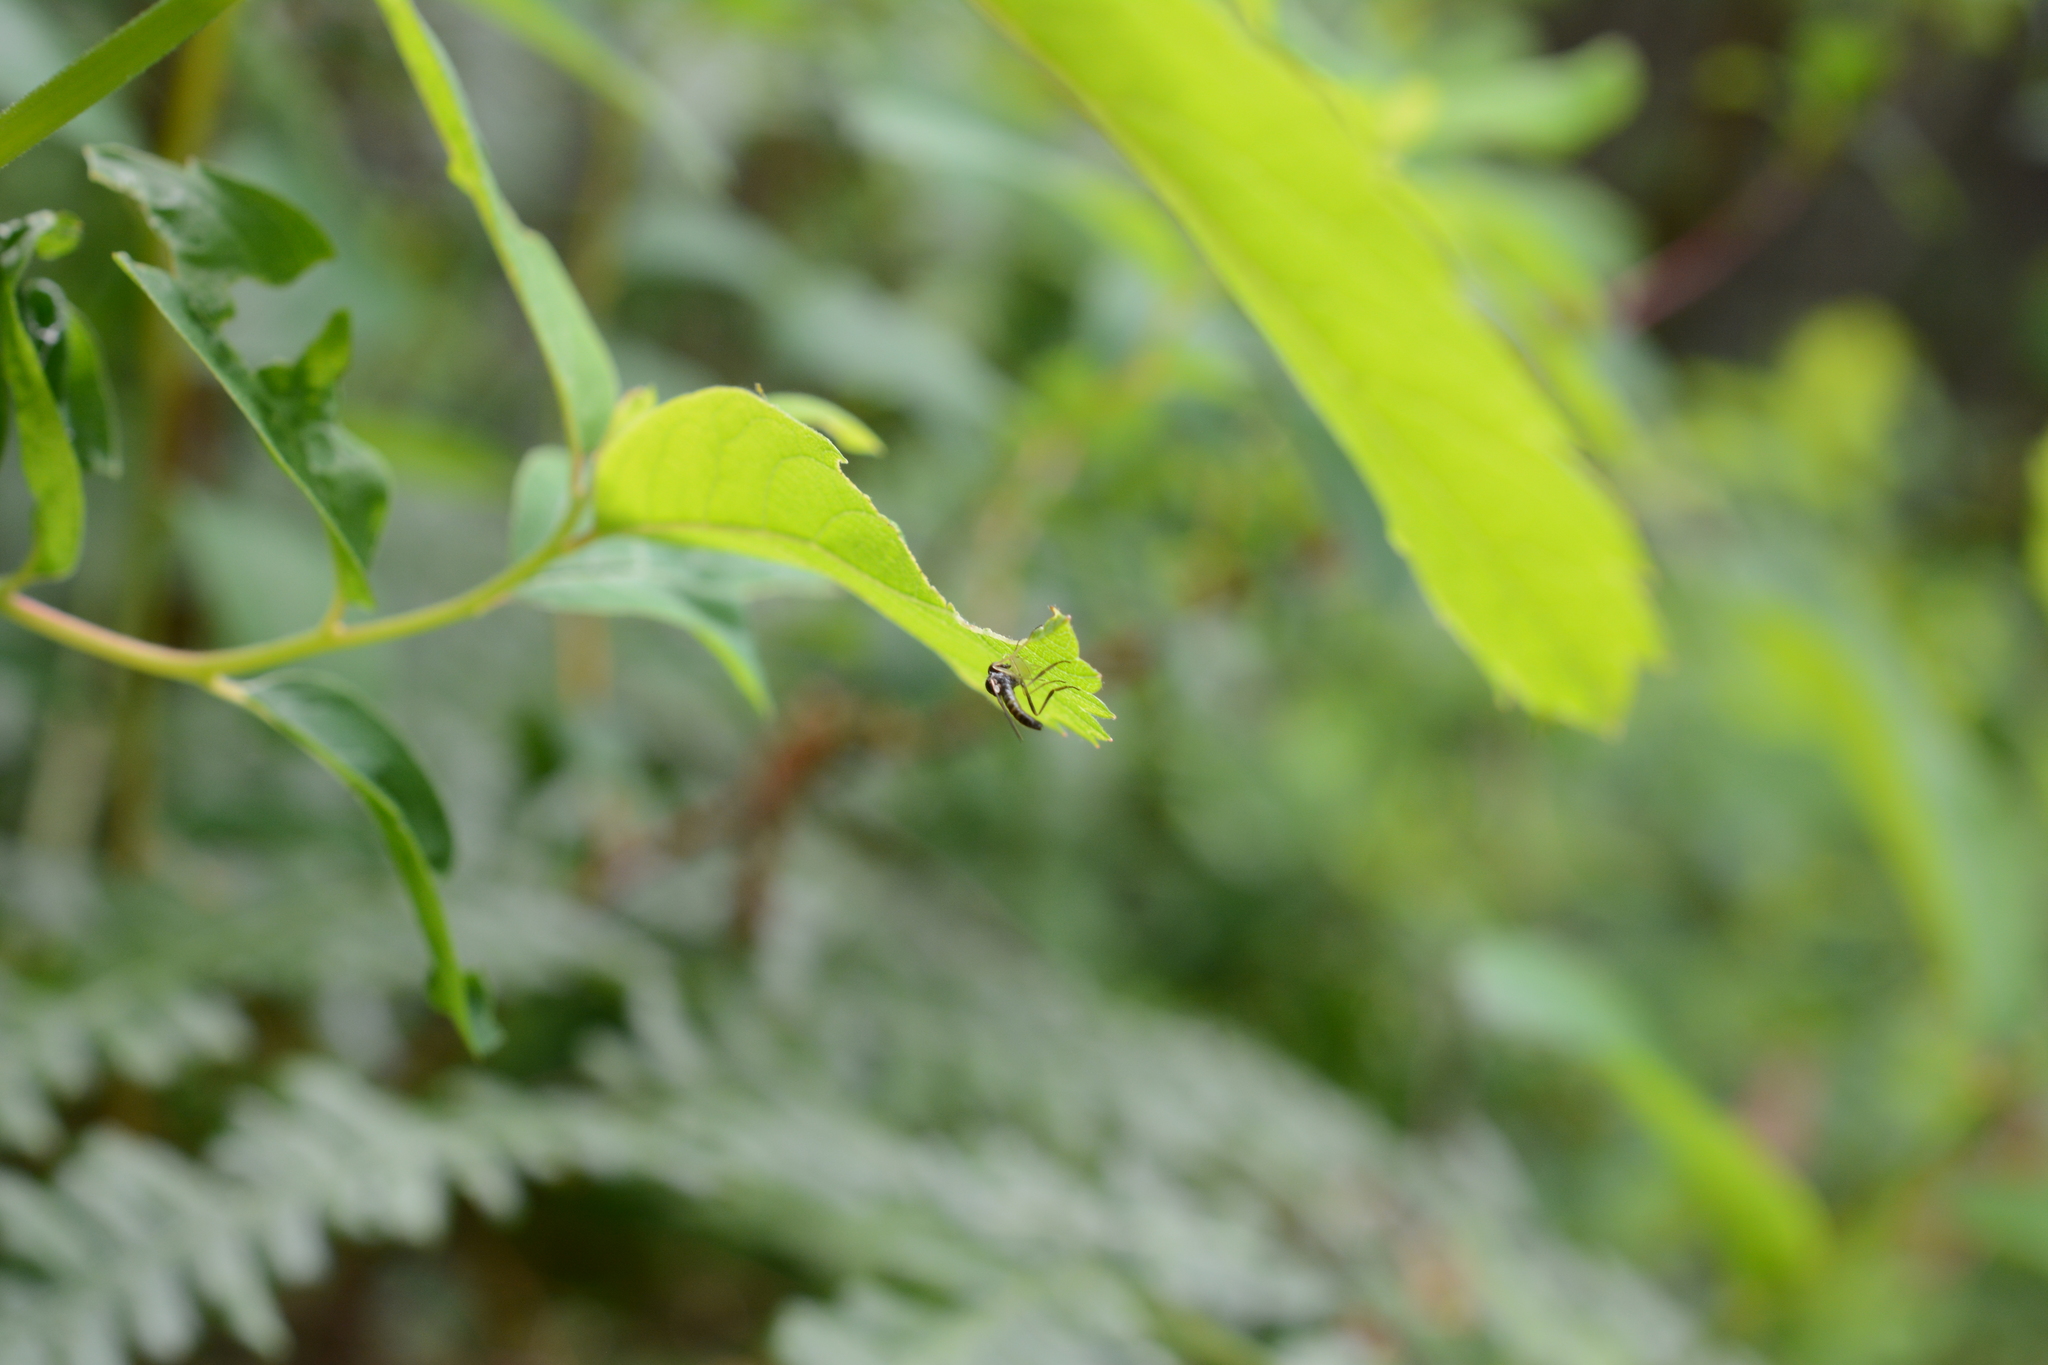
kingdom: Animalia
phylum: Arthropoda
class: Insecta
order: Diptera
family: Hybotidae
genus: Leptopeza
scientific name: Leptopeza disparilis
